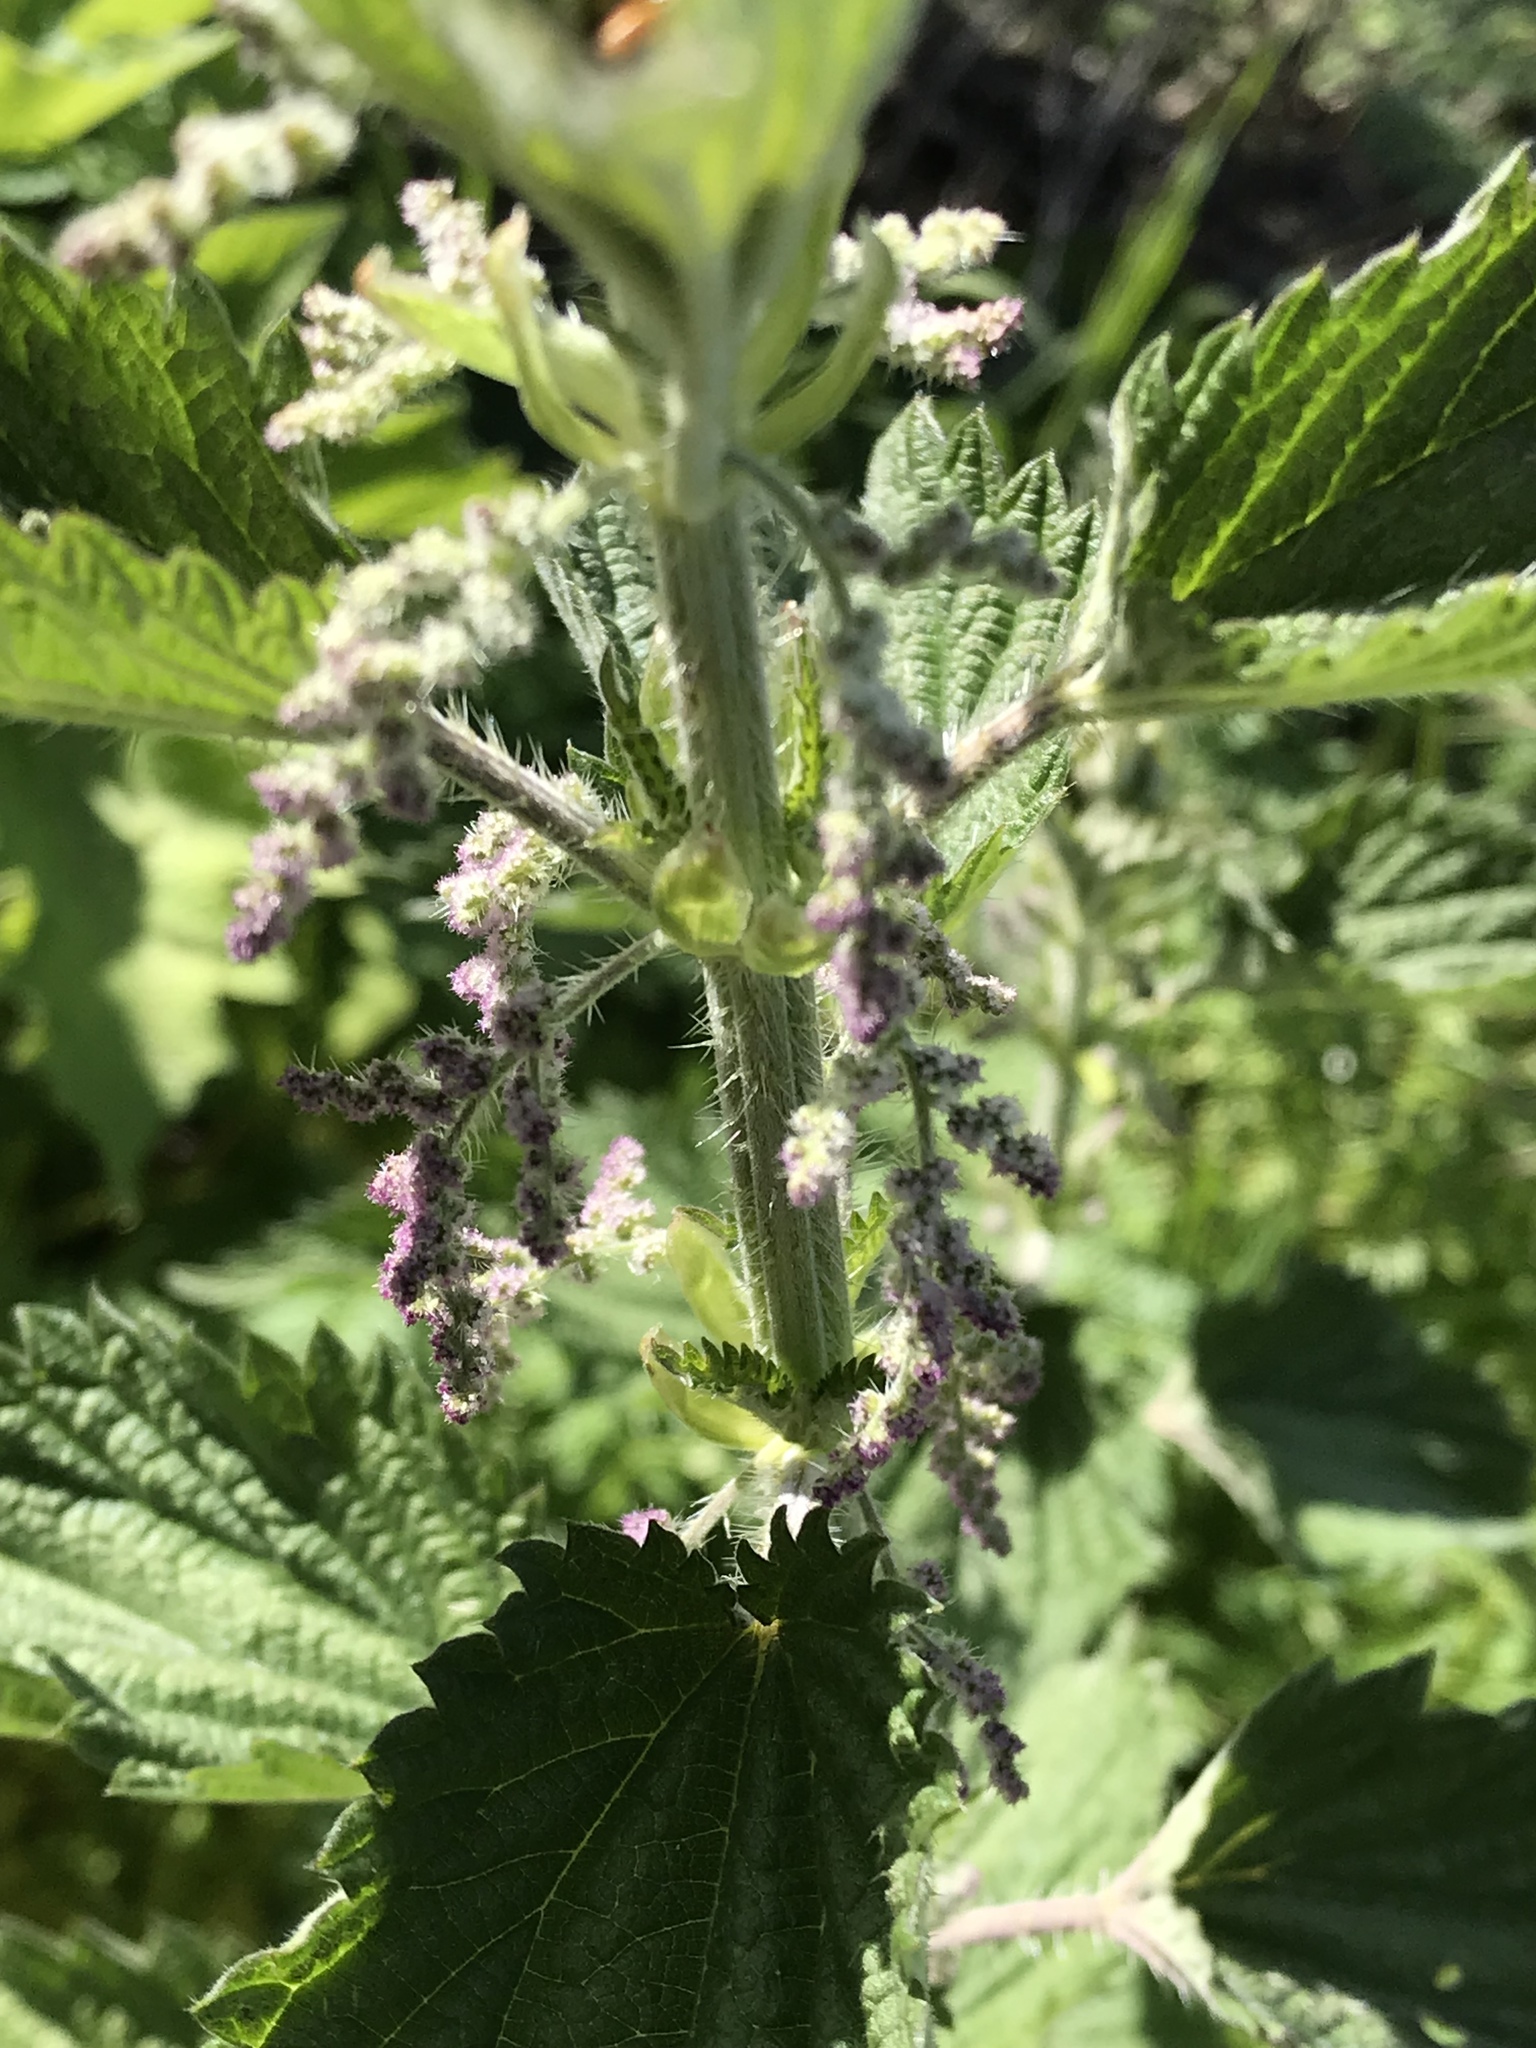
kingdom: Plantae
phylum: Tracheophyta
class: Magnoliopsida
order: Rosales
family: Urticaceae
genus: Urtica
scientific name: Urtica dioica
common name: Common nettle
